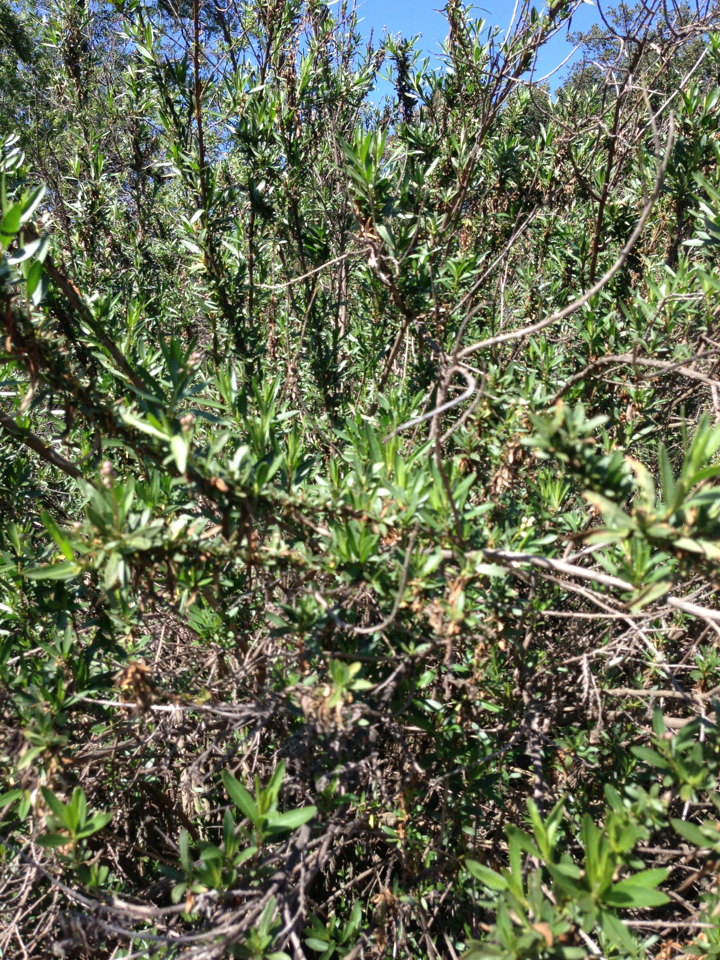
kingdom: Plantae
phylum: Tracheophyta
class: Magnoliopsida
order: Asterales
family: Asteraceae
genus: Baccharis
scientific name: Baccharis salicifolia
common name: Sticky baccharis
